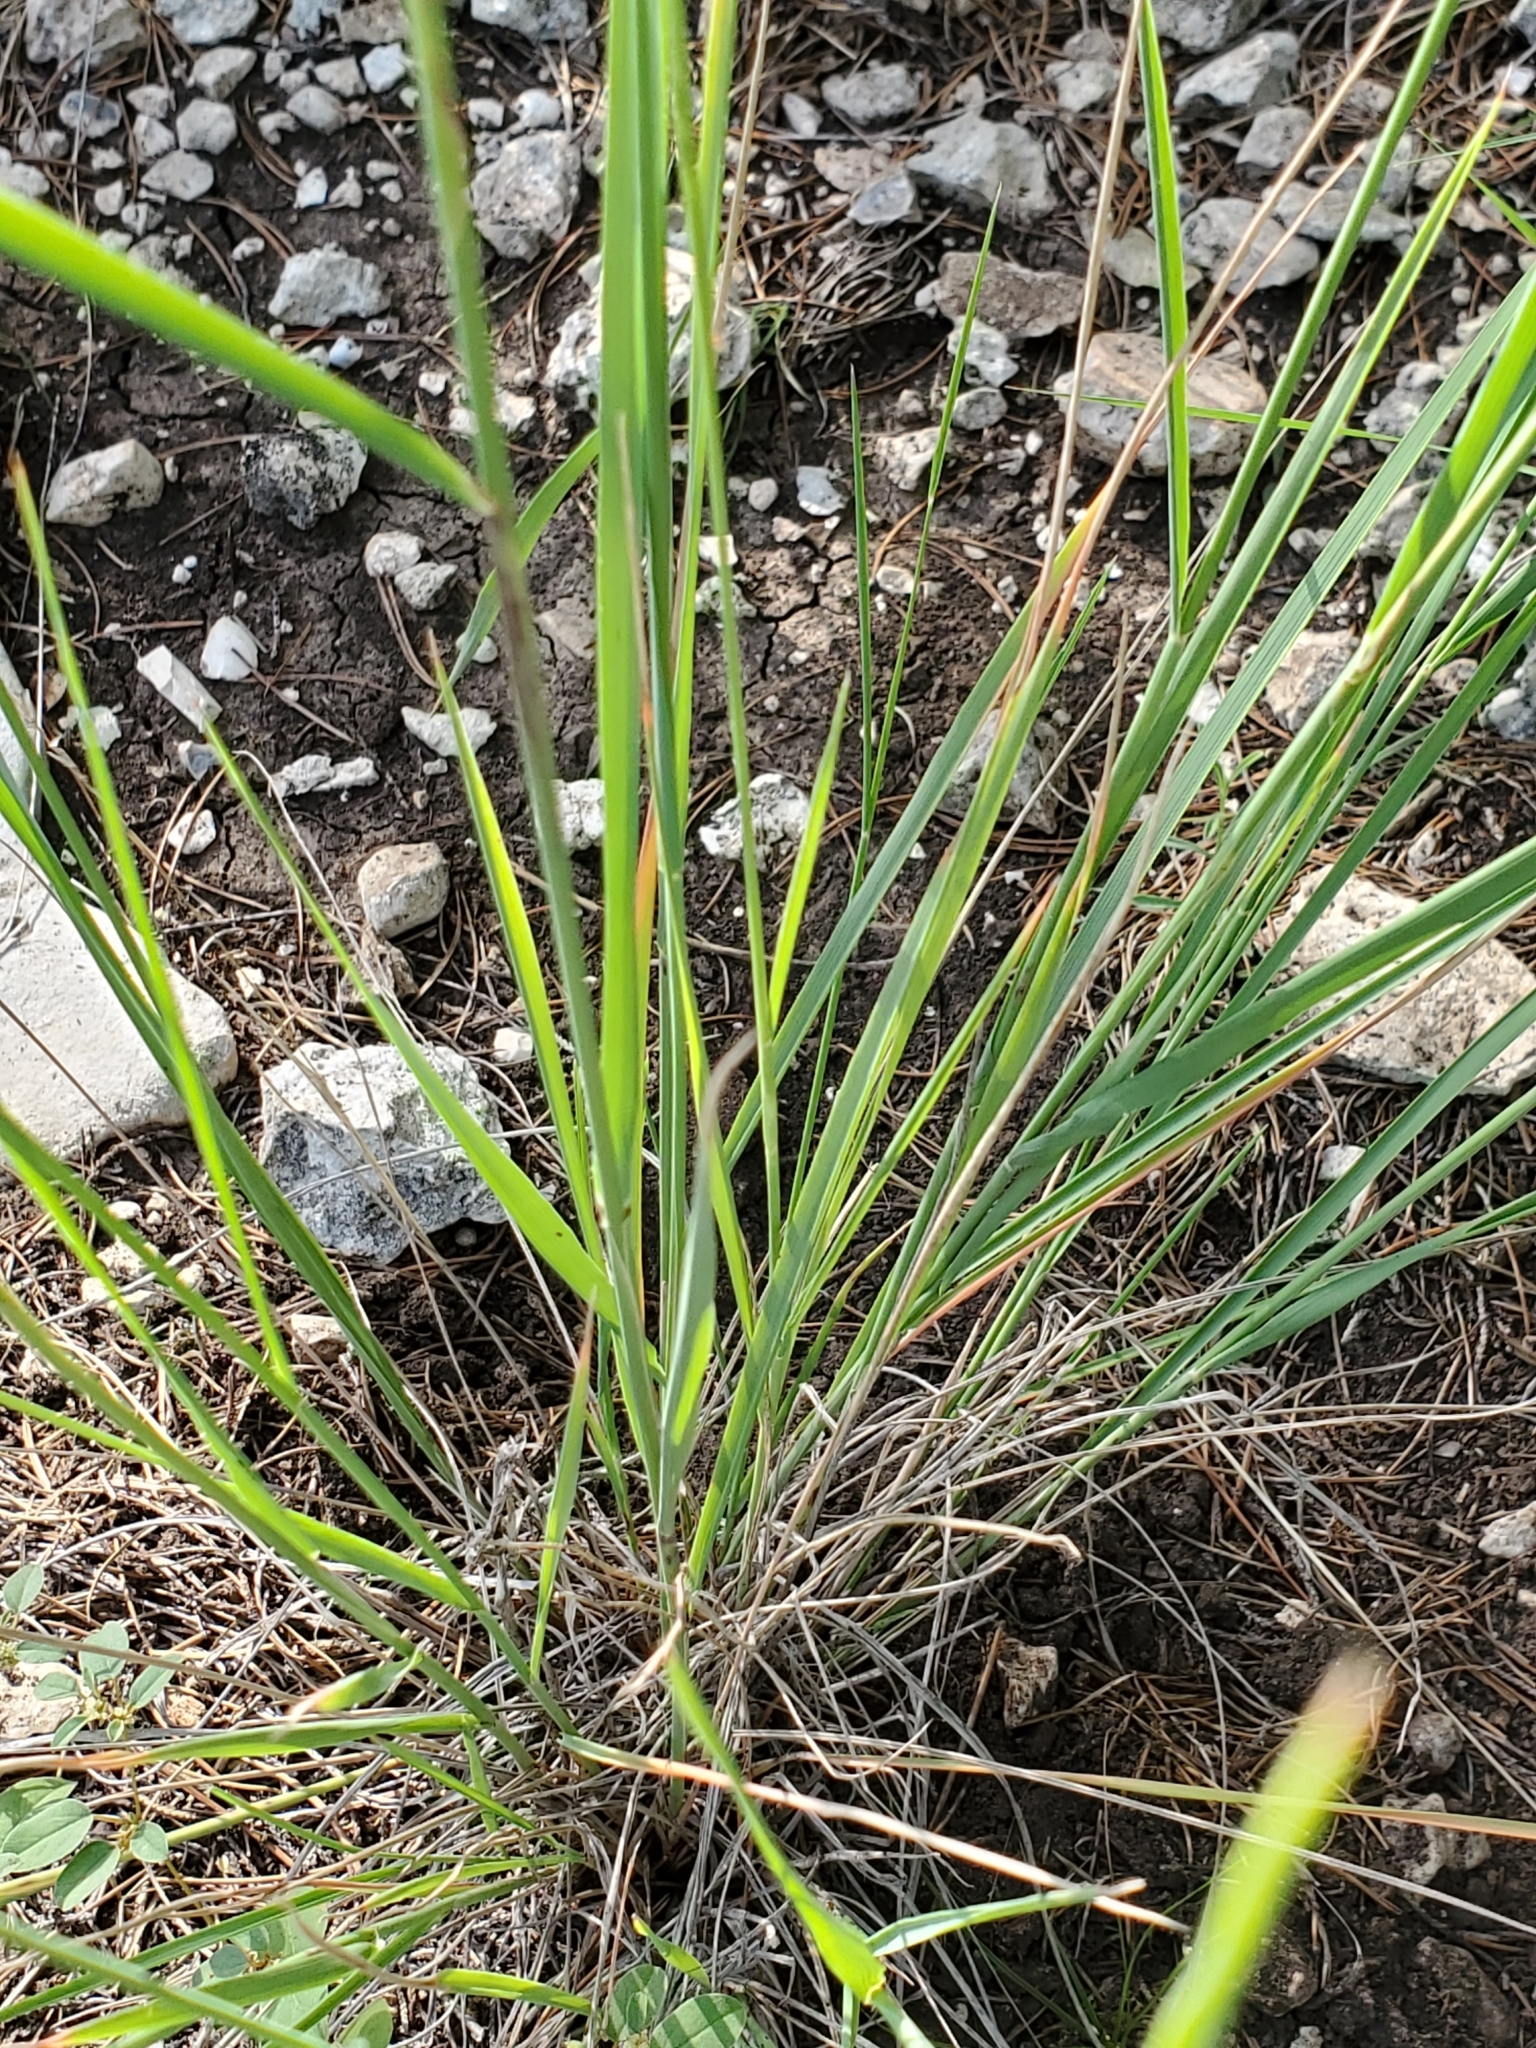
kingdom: Plantae
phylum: Tracheophyta
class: Liliopsida
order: Poales
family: Poaceae
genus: Tridentopsis
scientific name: Tridentopsis mutica
